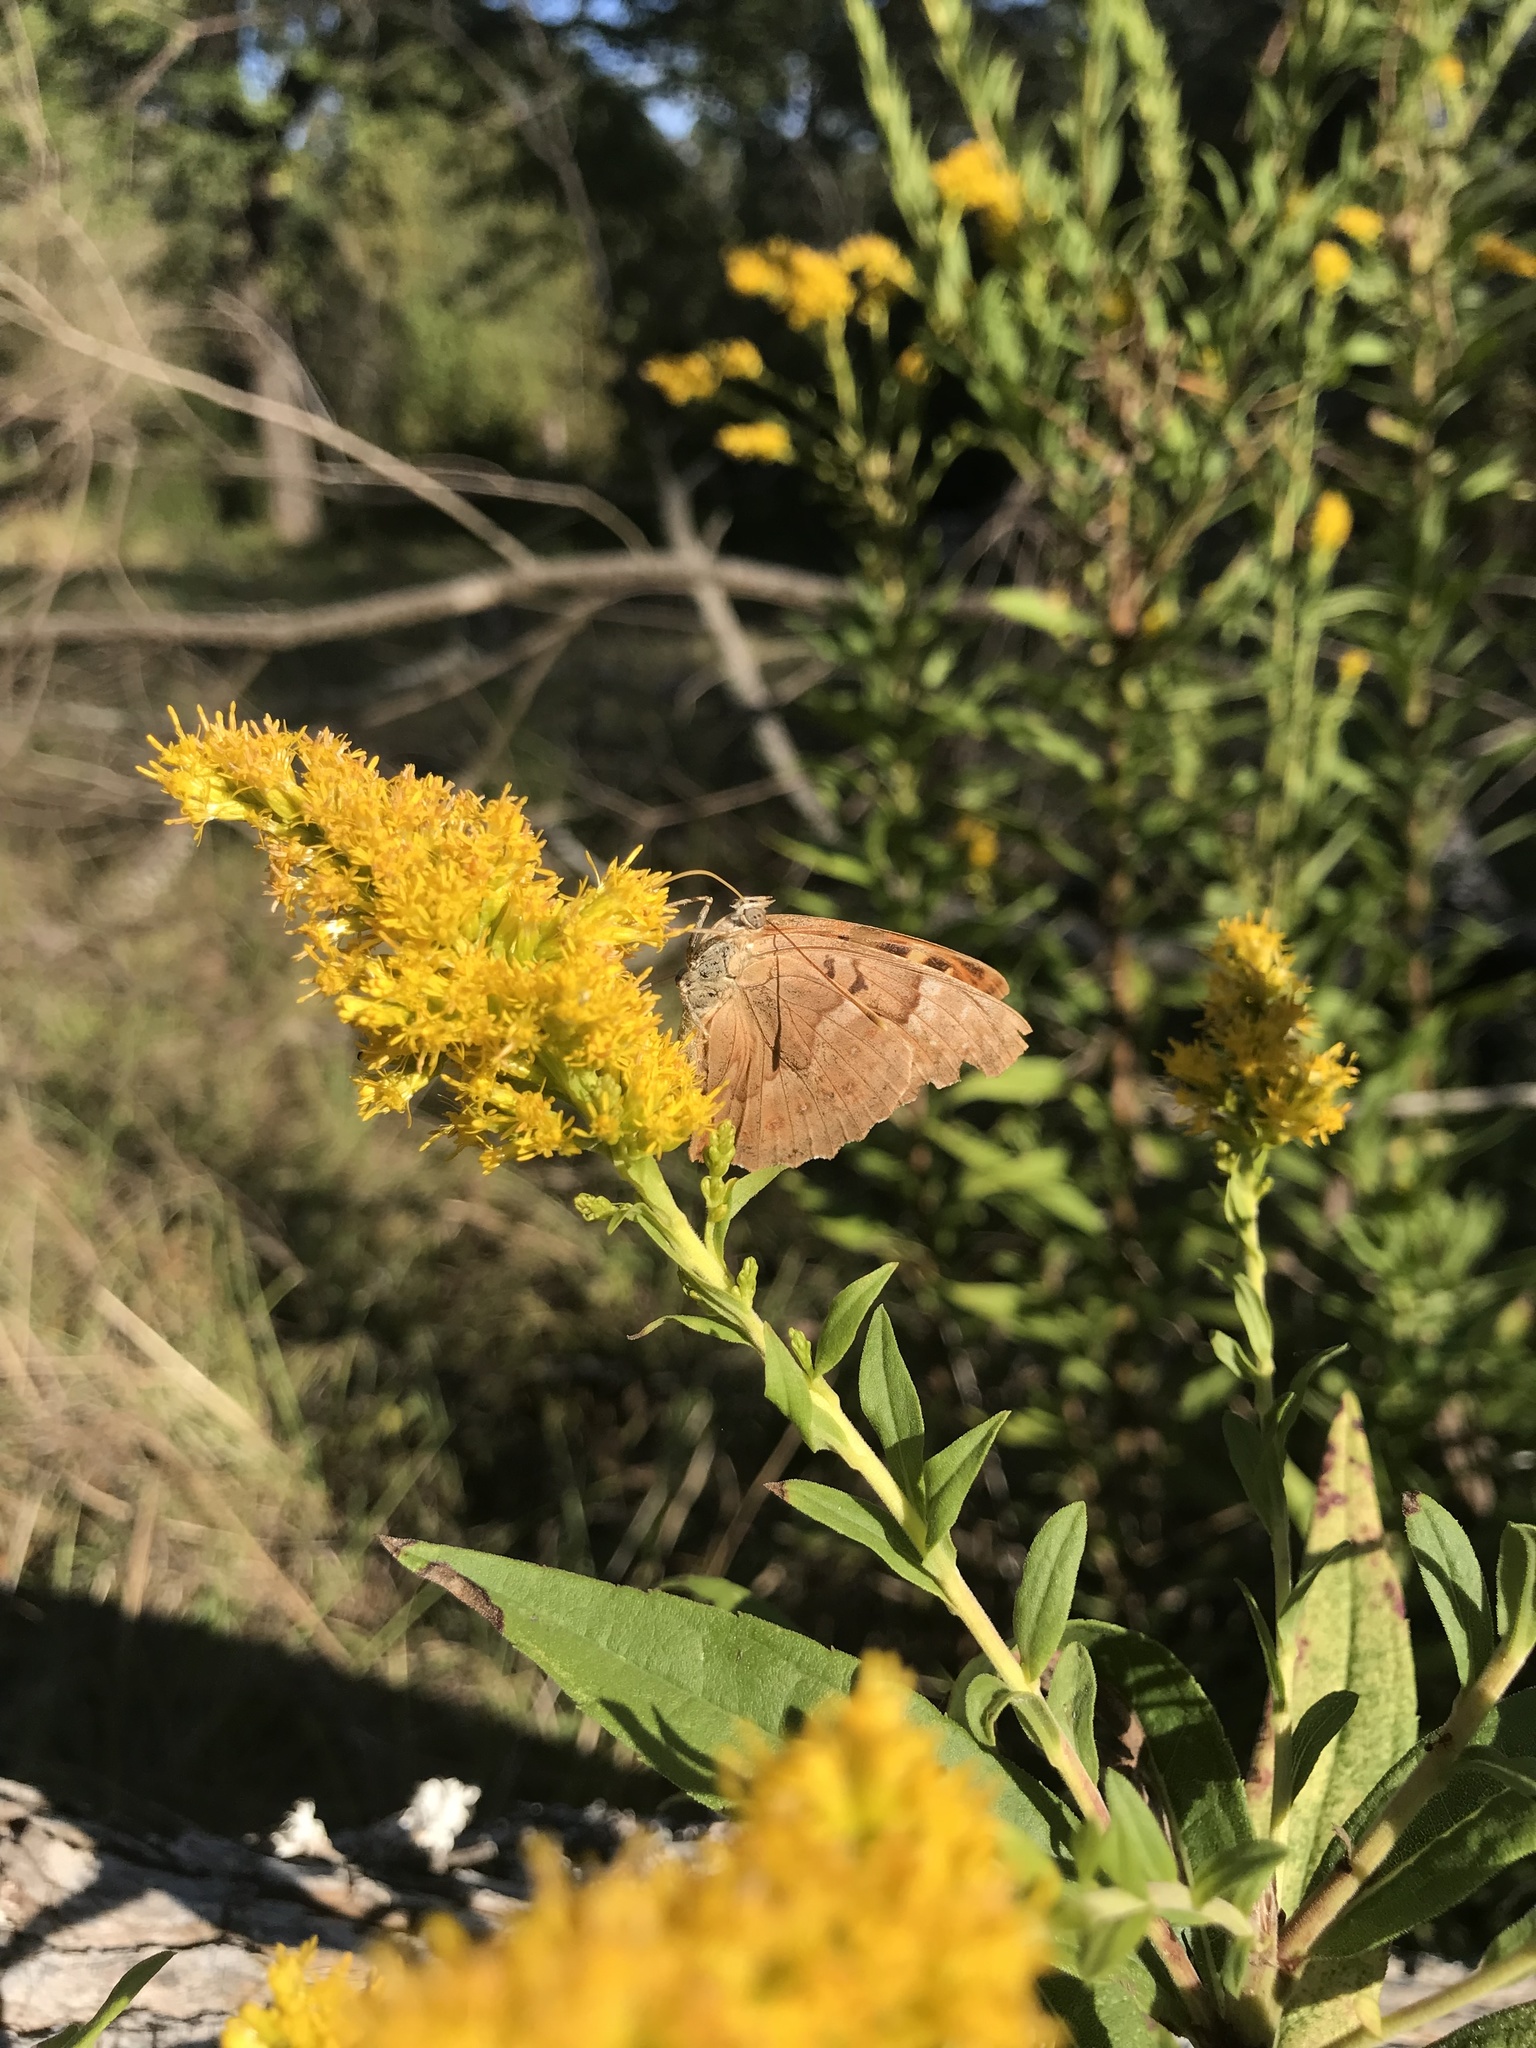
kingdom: Animalia
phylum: Arthropoda
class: Insecta
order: Lepidoptera
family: Nymphalidae
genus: Asterocampa
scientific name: Asterocampa clyton
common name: Tawny emperor
